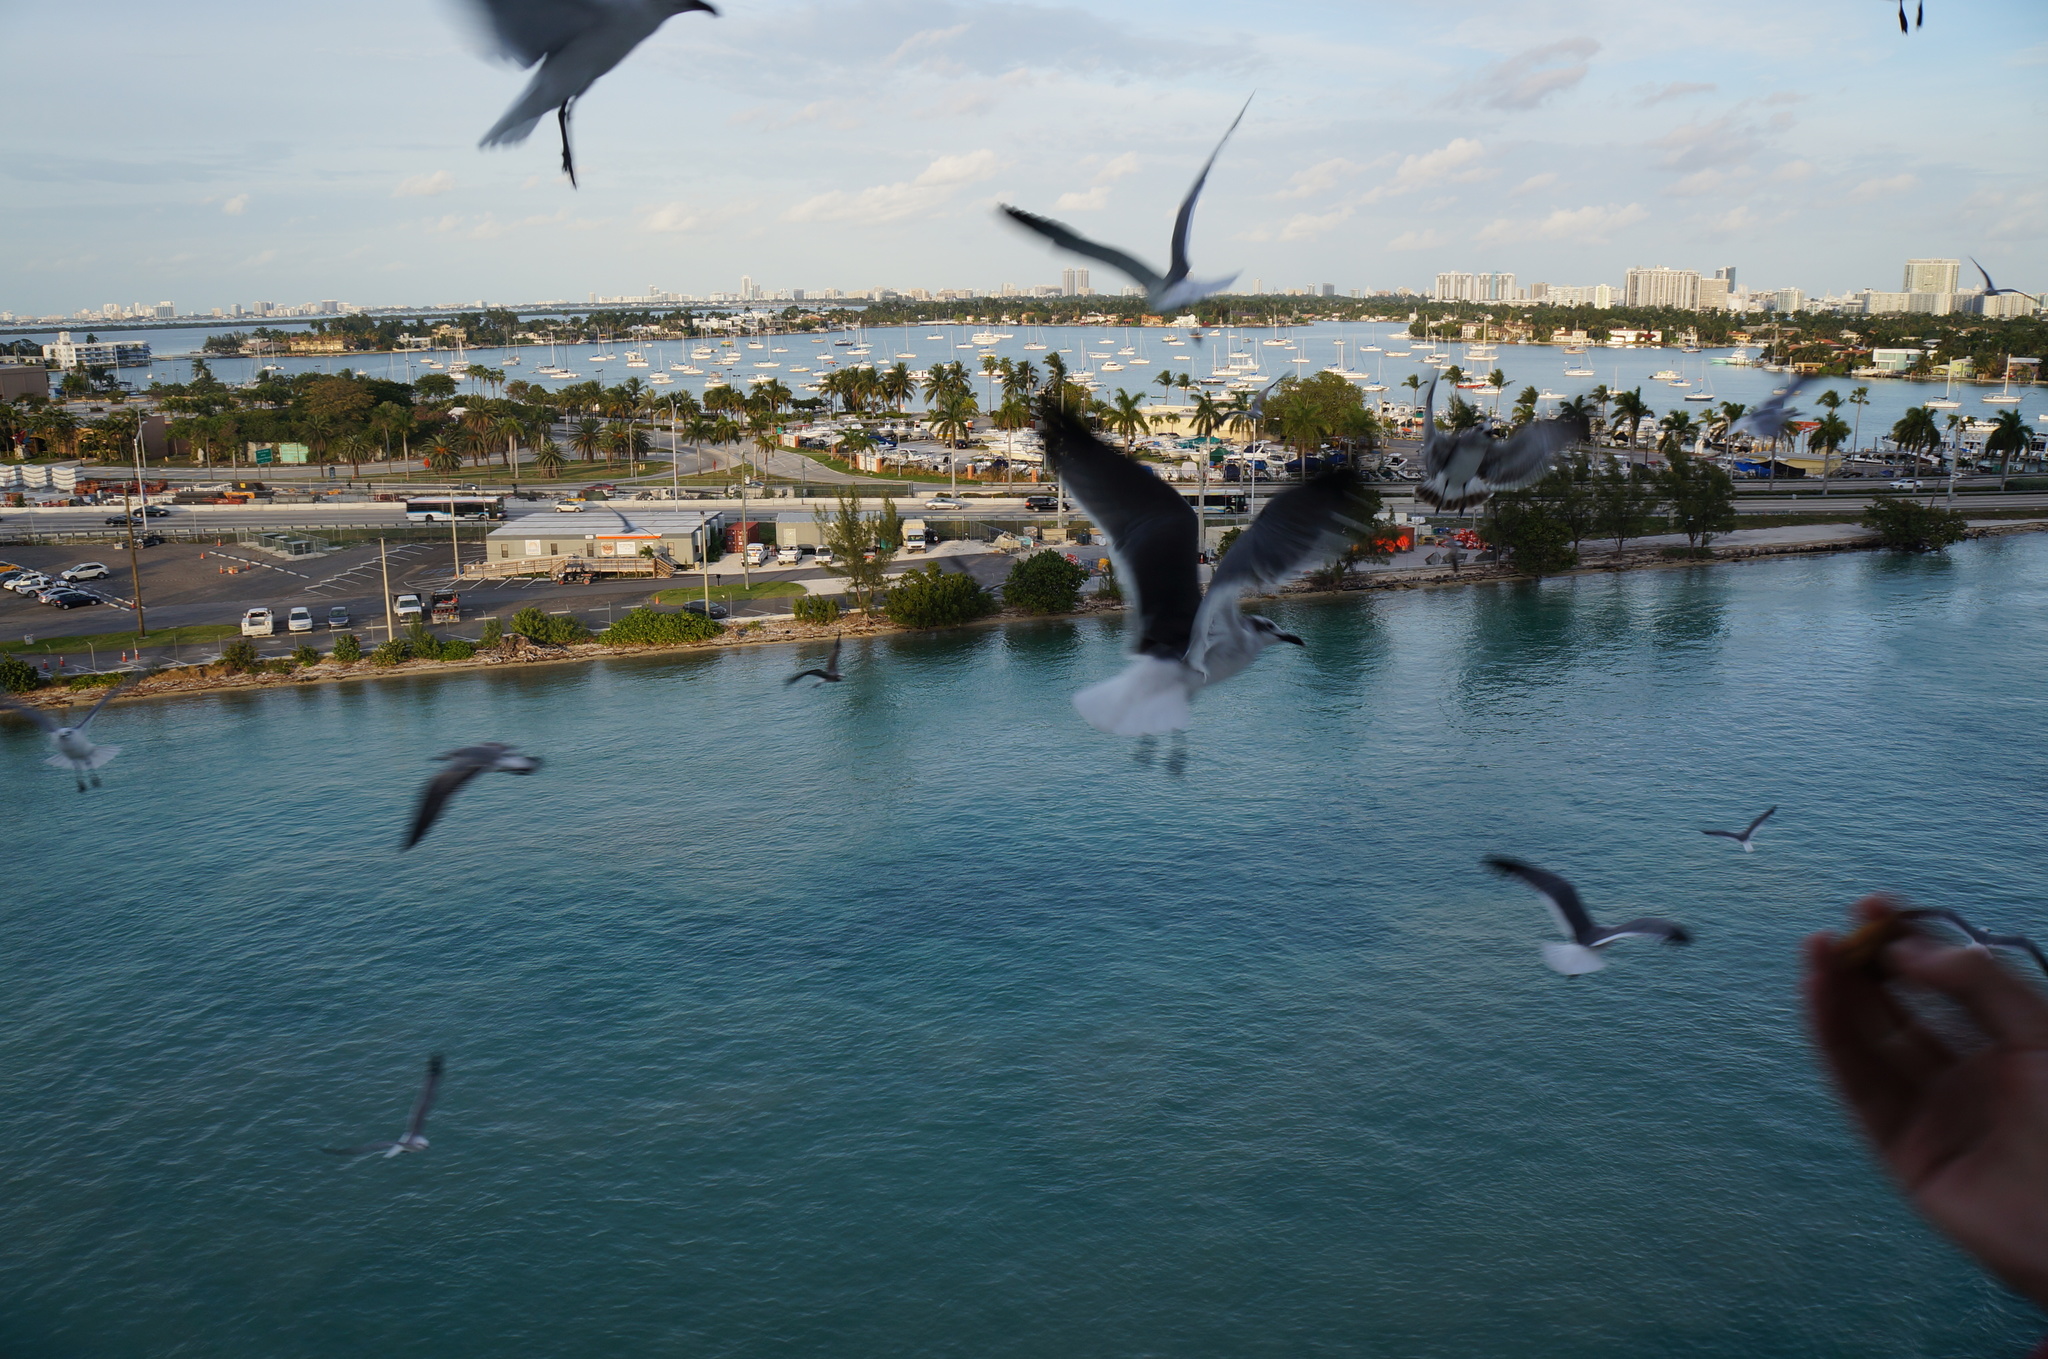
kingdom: Animalia
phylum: Chordata
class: Aves
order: Charadriiformes
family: Laridae
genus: Leucophaeus
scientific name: Leucophaeus atricilla
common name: Laughing gull
